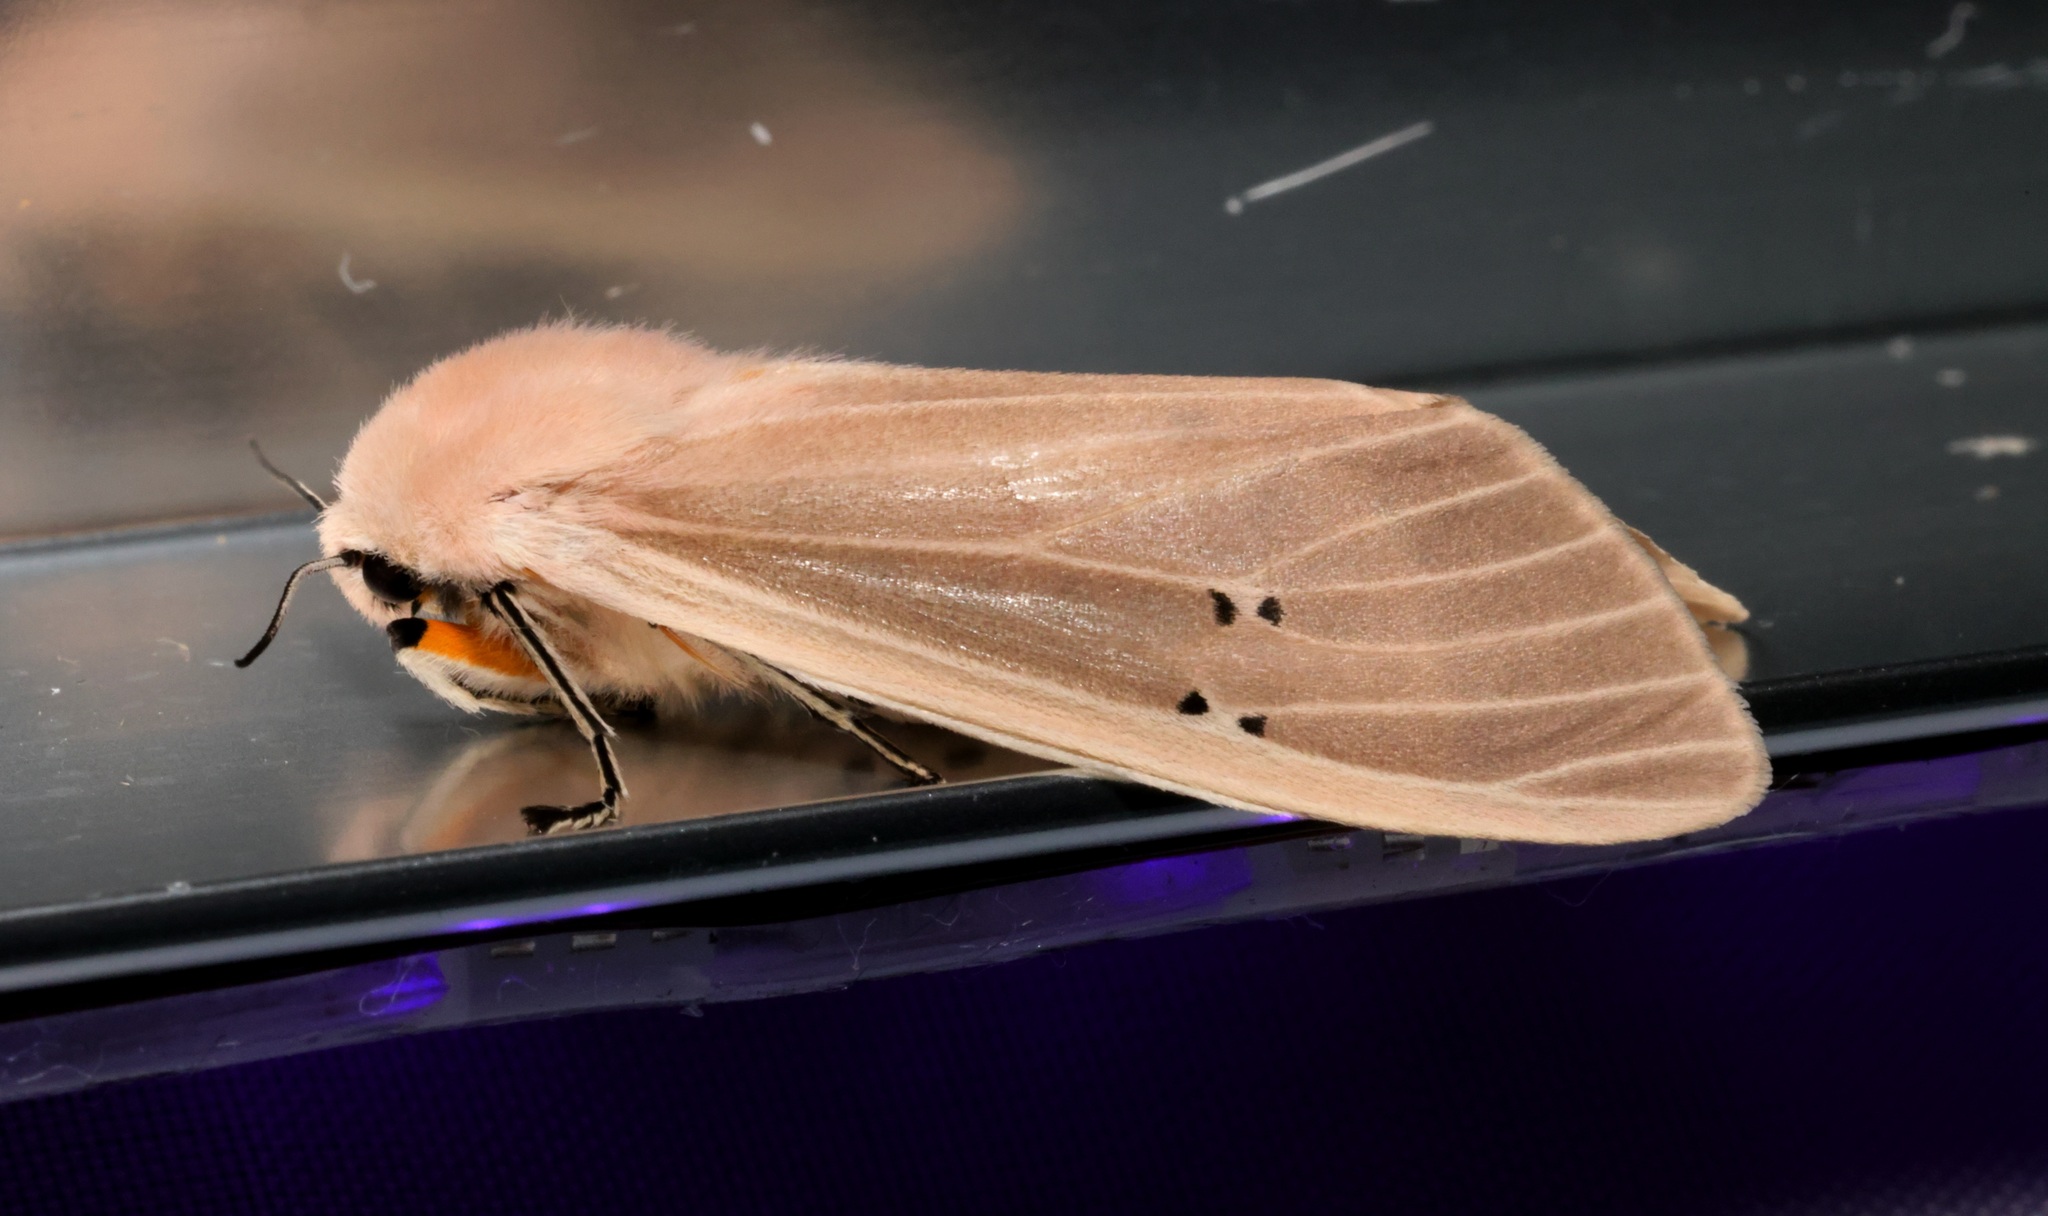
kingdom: Animalia
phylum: Arthropoda
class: Insecta
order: Lepidoptera
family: Erebidae
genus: Creatonotos
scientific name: Creatonotos transiens
